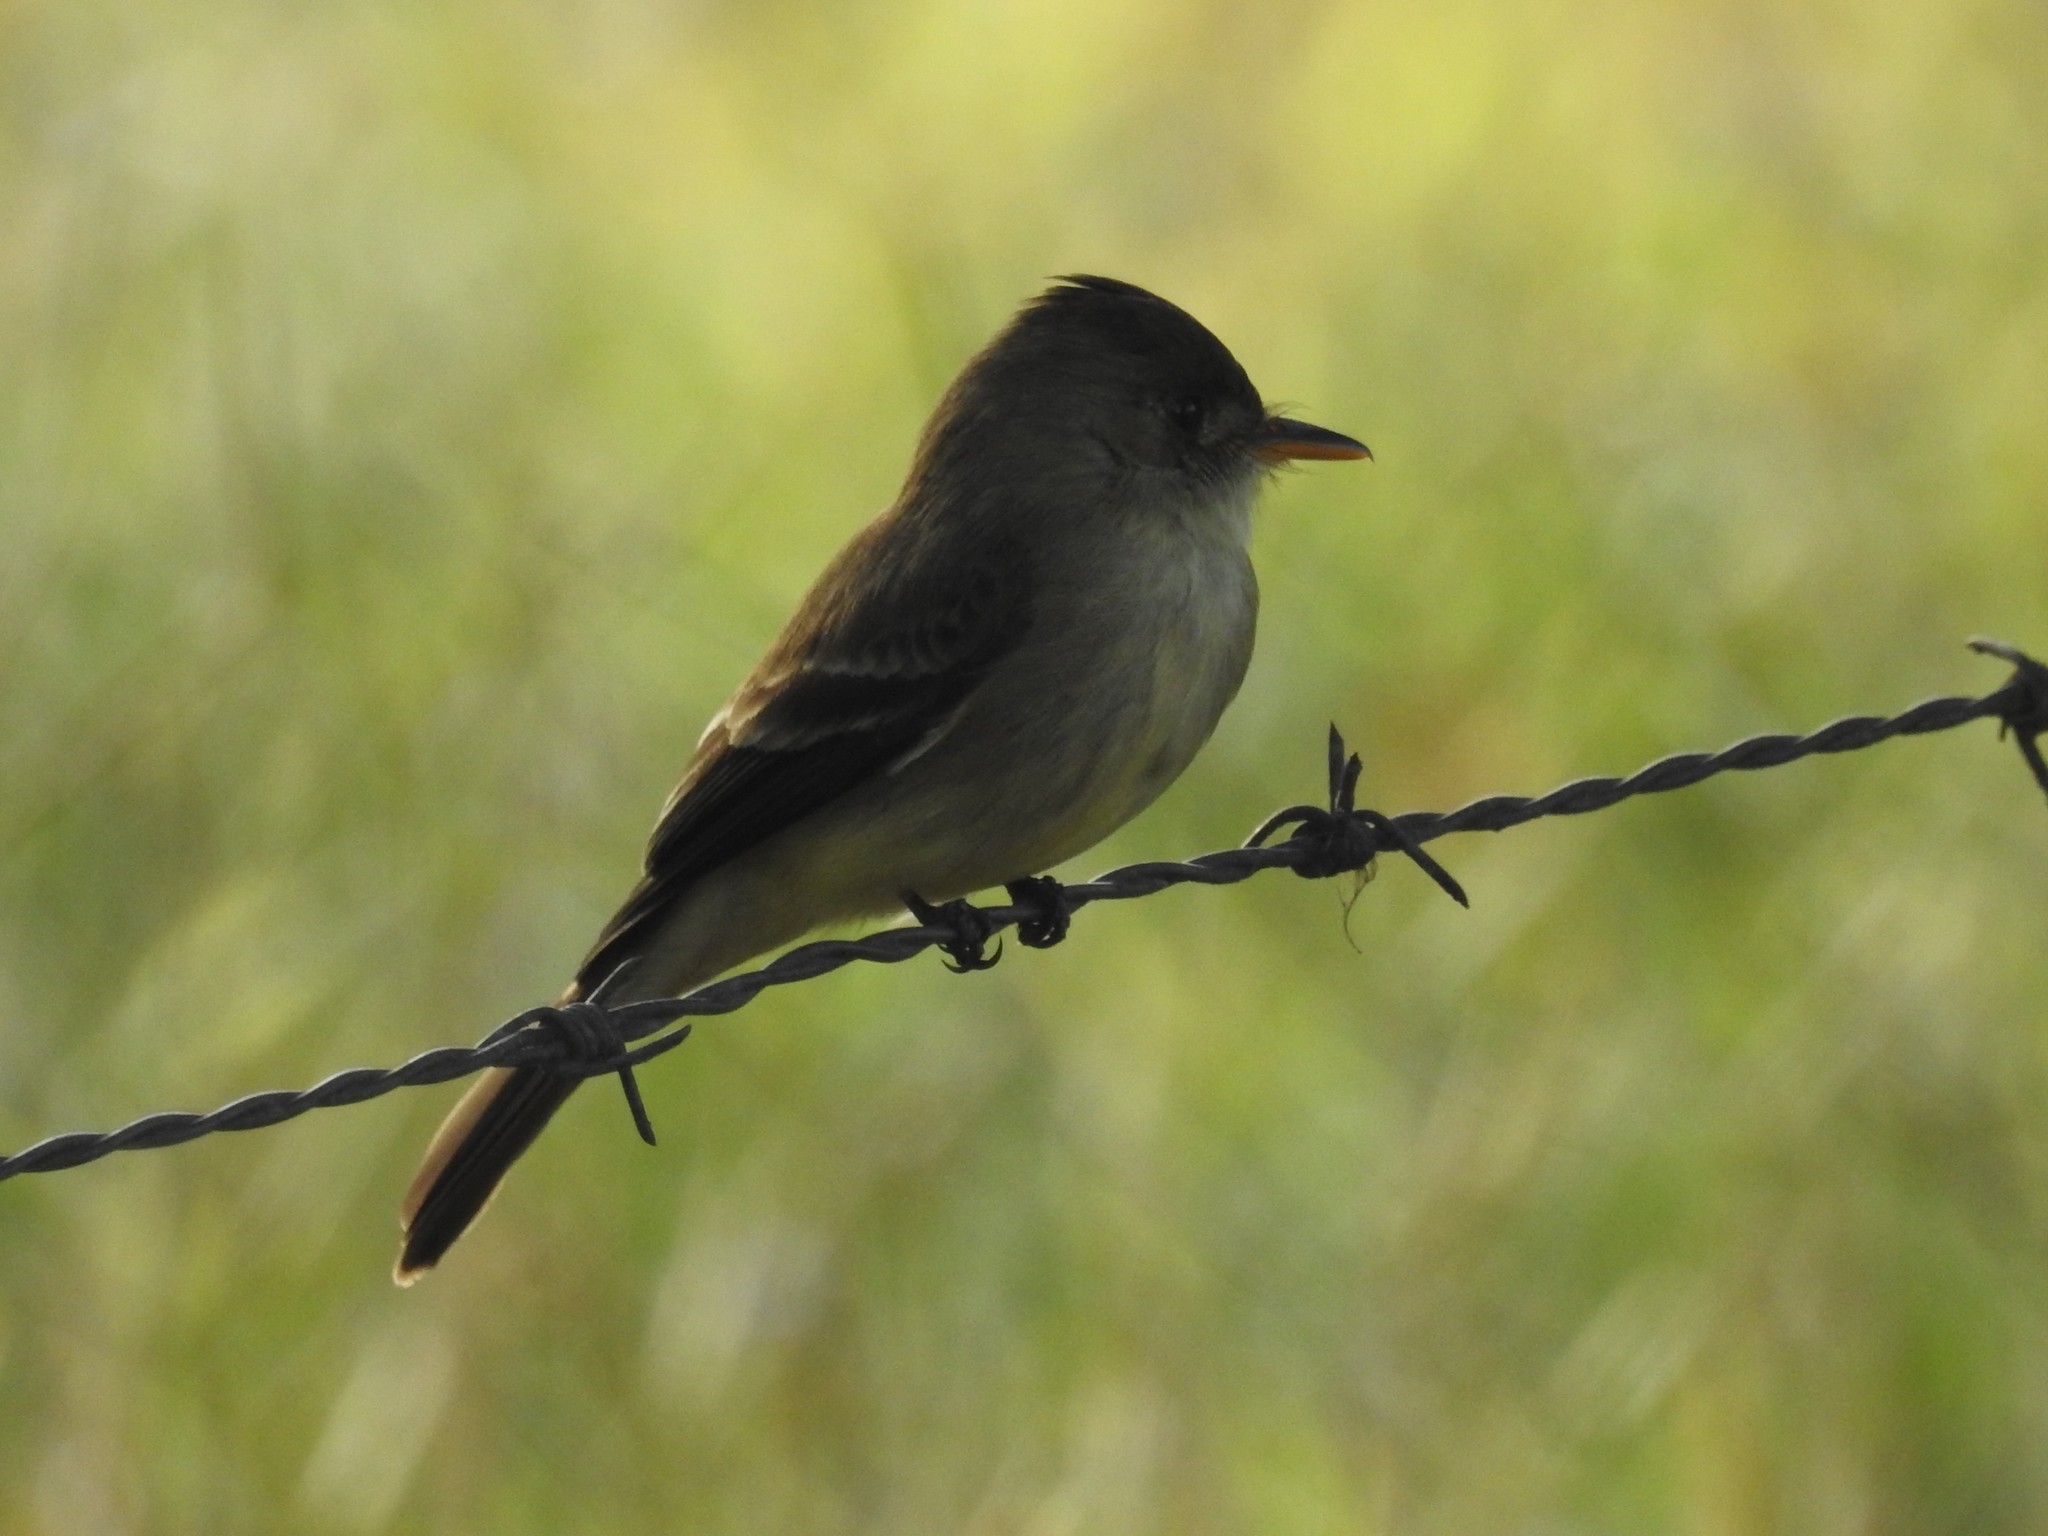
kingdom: Animalia
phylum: Chordata
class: Aves
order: Passeriformes
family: Tyrannidae
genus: Contopus
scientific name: Contopus cinereus
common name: Tropical pewee
